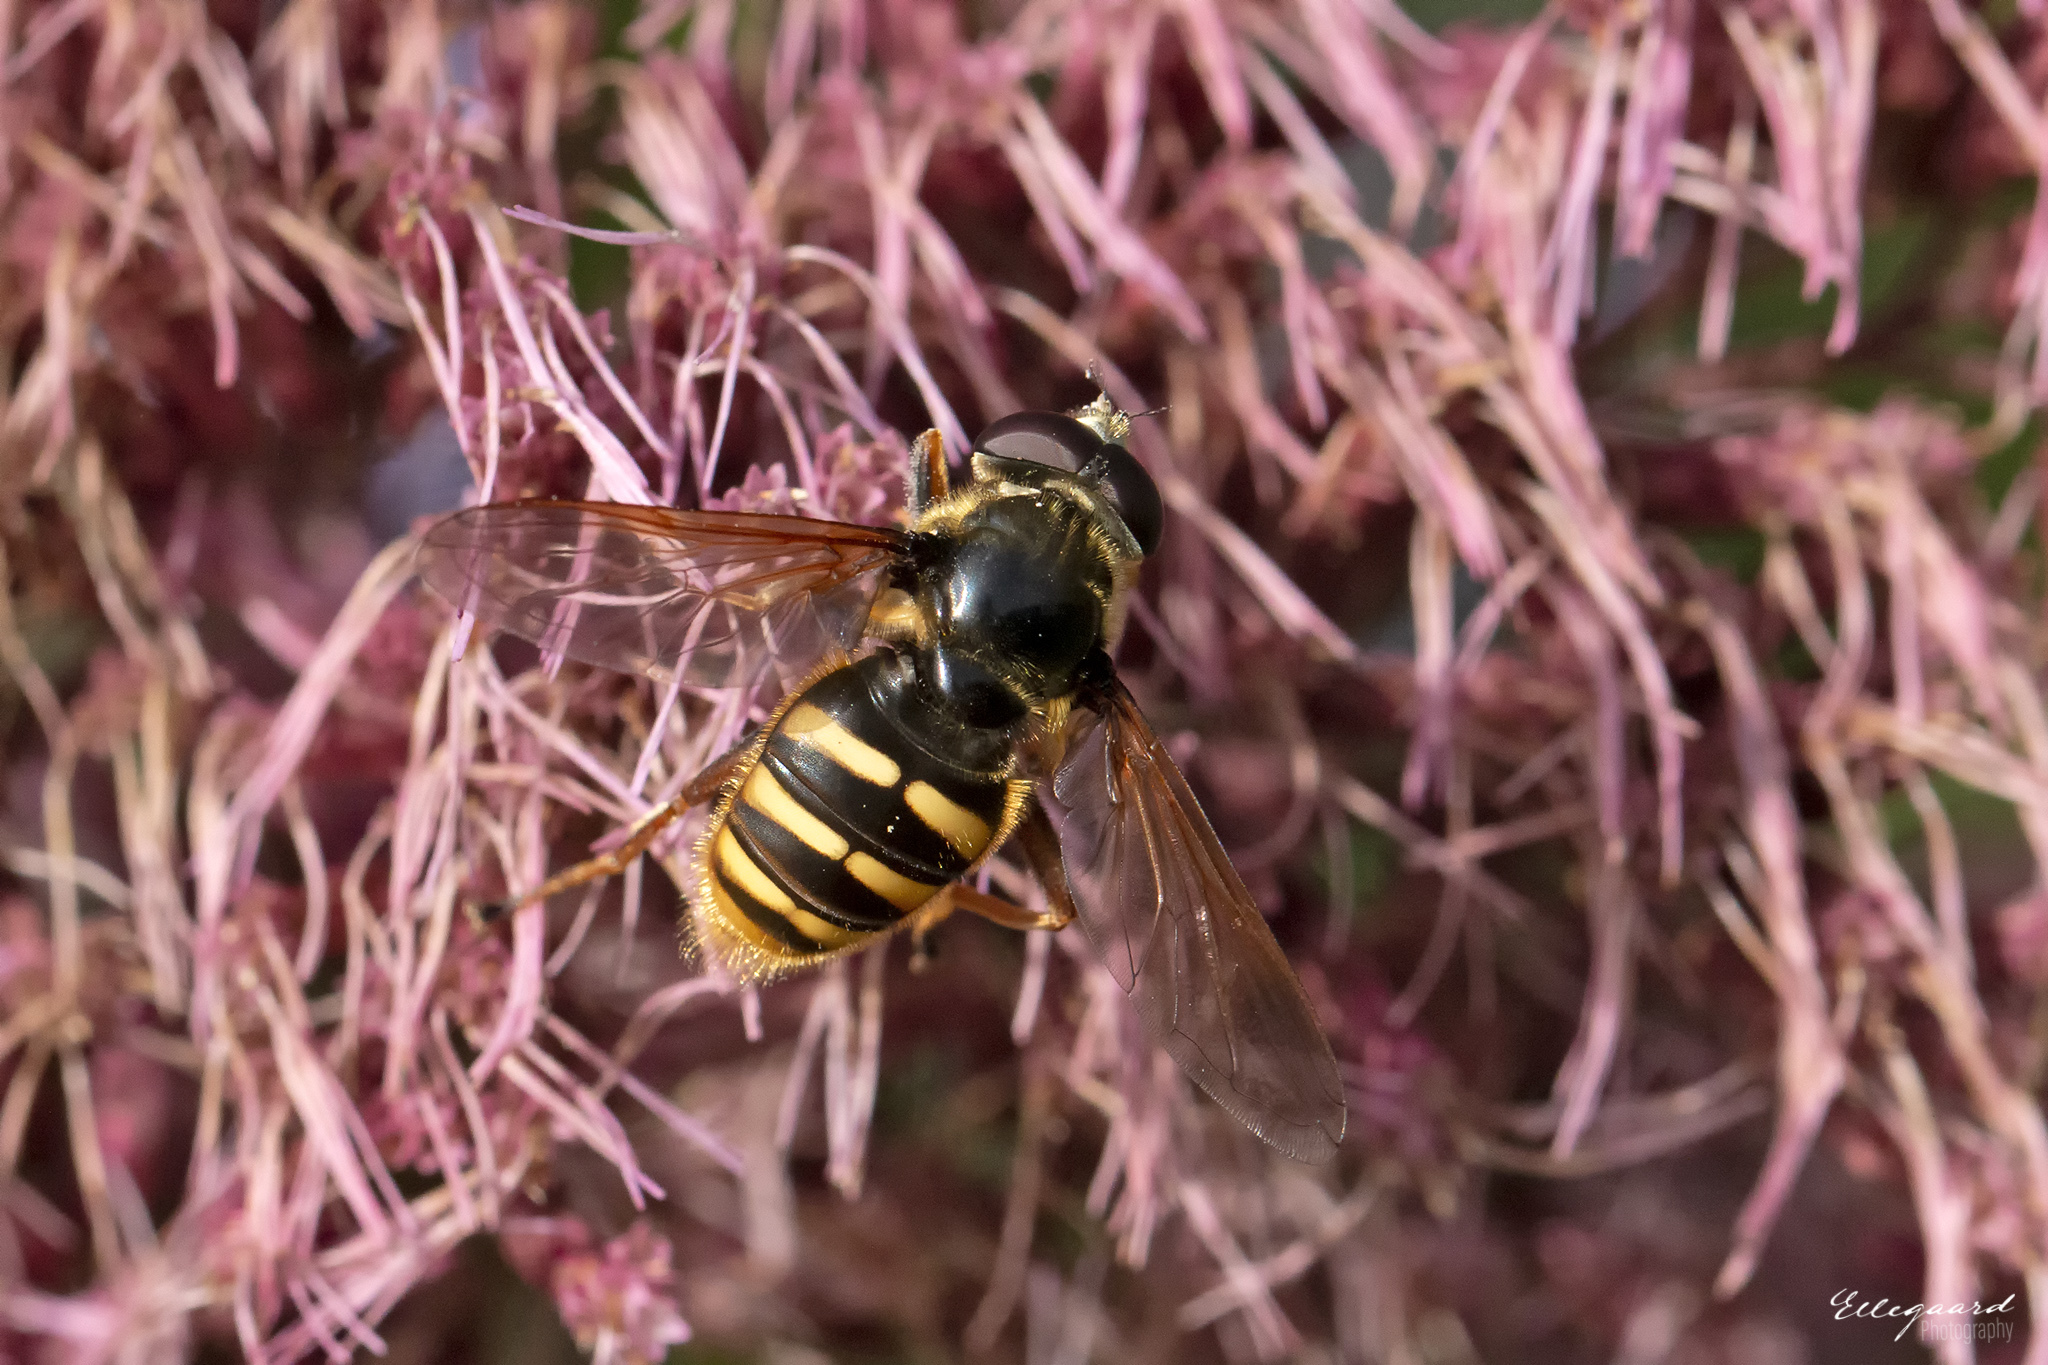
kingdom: Animalia
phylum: Arthropoda
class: Insecta
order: Diptera
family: Syrphidae
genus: Sericomyia
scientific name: Sericomyia silentis
